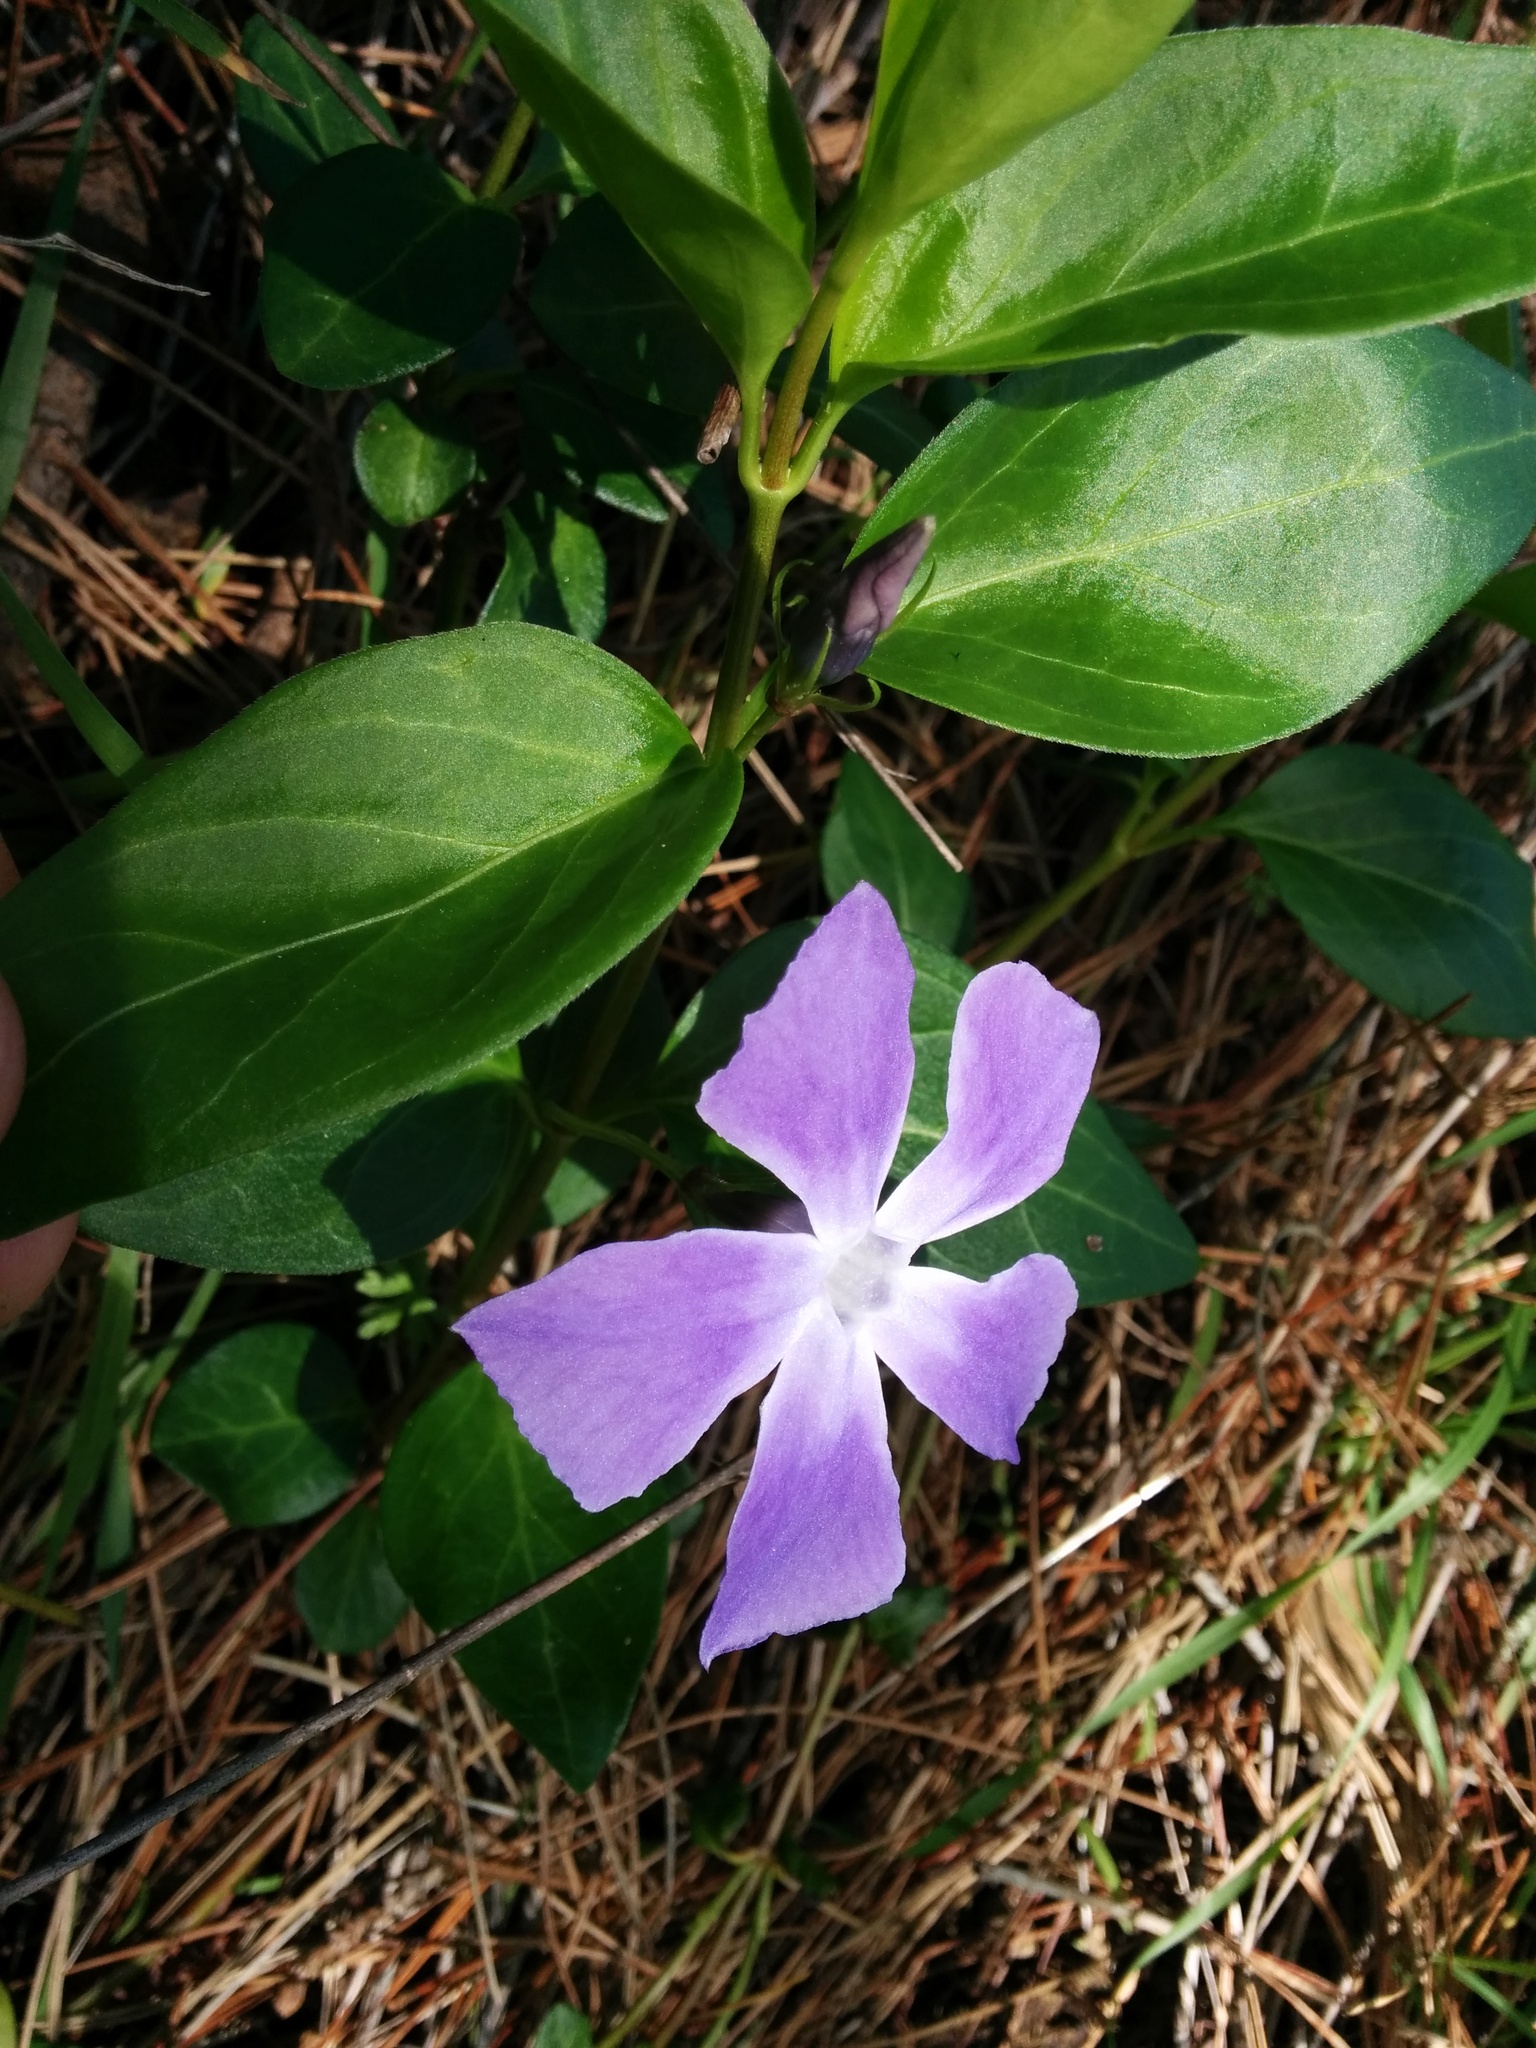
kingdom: Plantae
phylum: Tracheophyta
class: Magnoliopsida
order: Gentianales
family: Apocynaceae
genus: Vinca
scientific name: Vinca major
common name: Greater periwinkle
